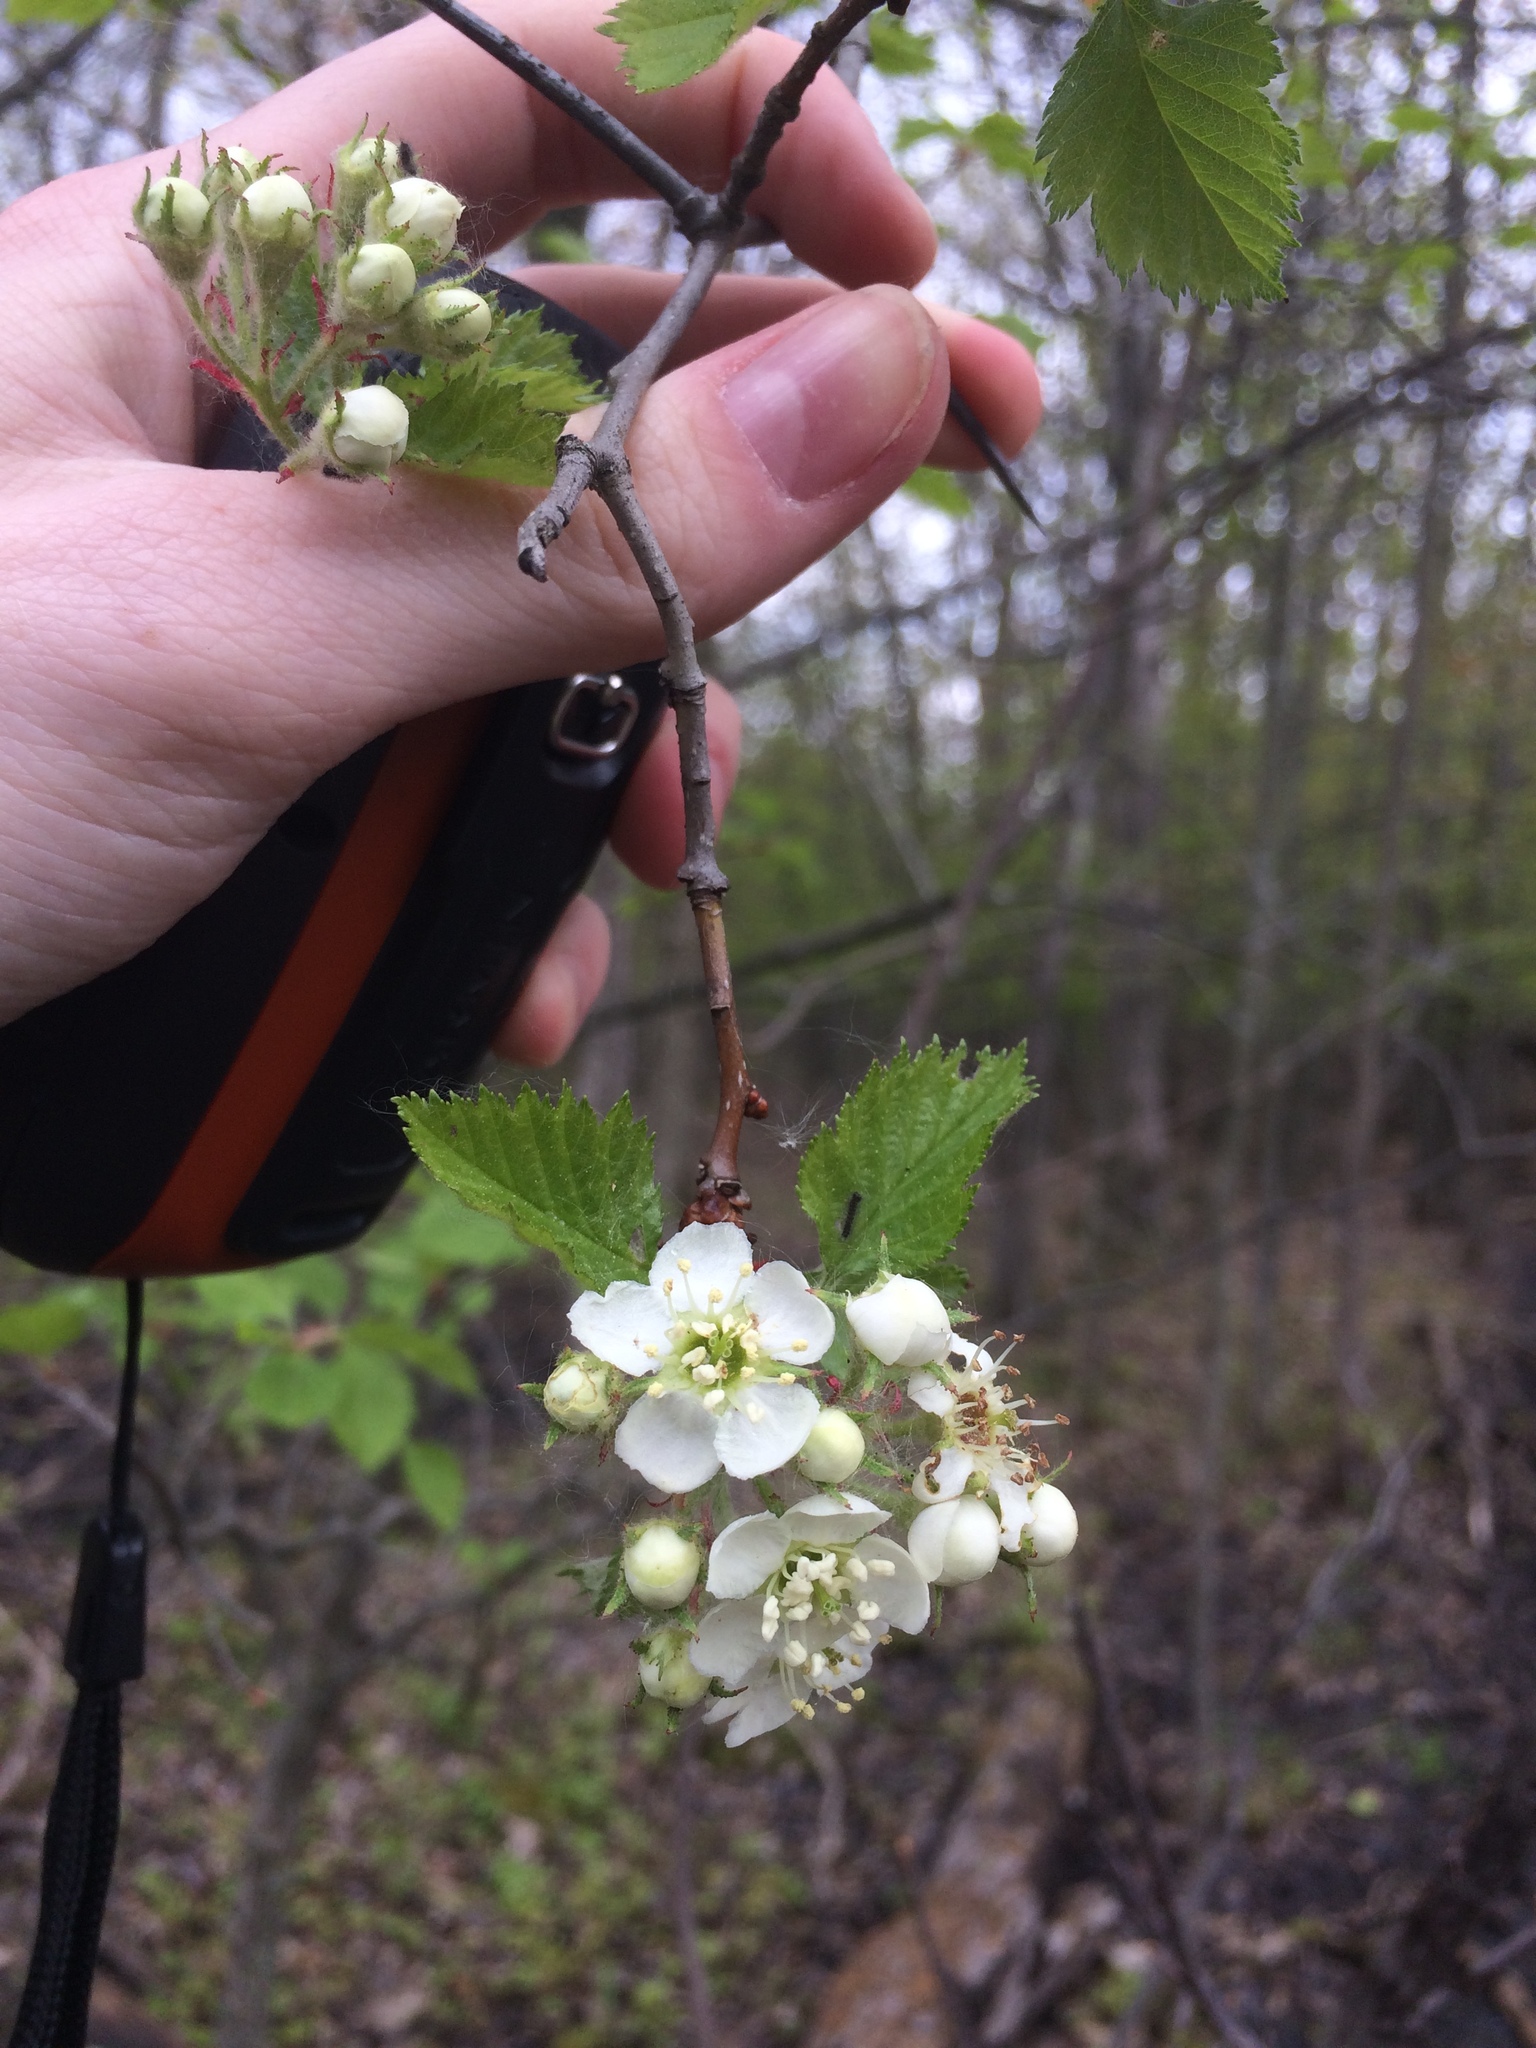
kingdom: Plantae
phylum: Tracheophyta
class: Magnoliopsida
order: Rosales
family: Rosaceae
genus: Crataegus
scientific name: Crataegus submollis
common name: Hairy cockspurthorn
